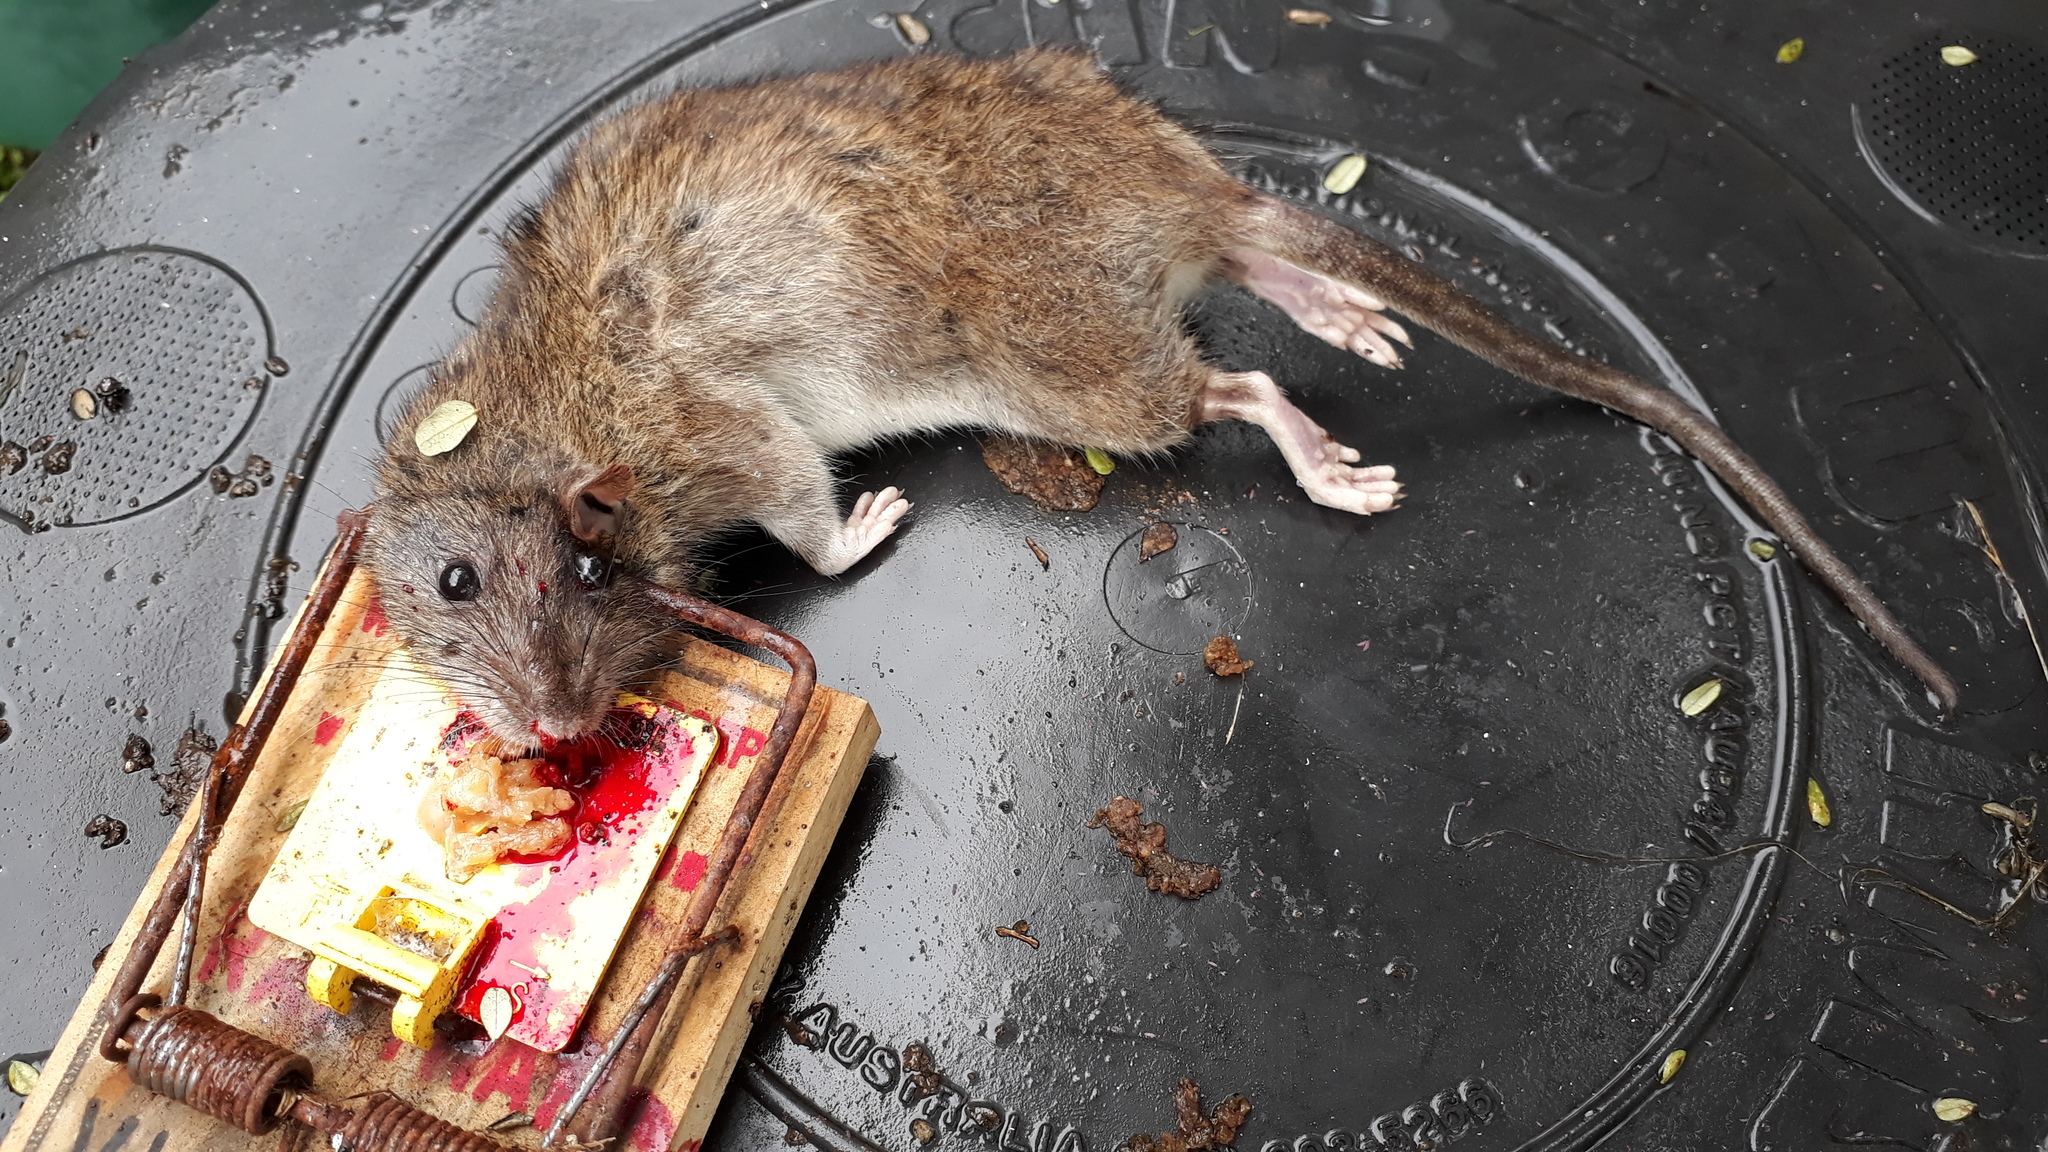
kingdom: Animalia
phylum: Chordata
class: Mammalia
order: Rodentia
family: Muridae
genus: Rattus
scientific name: Rattus norvegicus
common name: Brown rat
